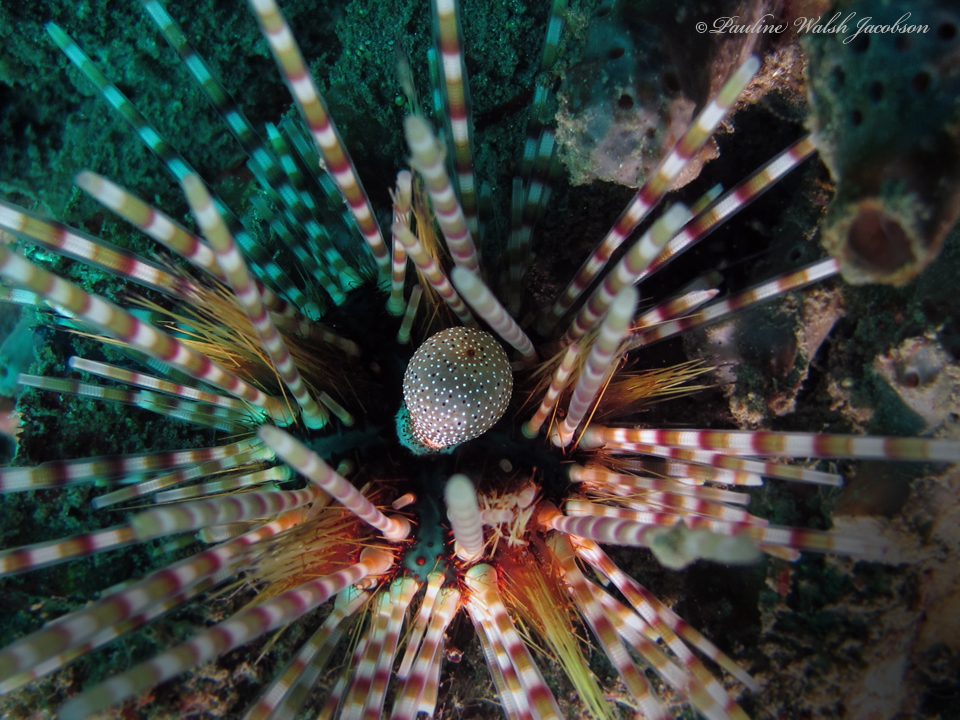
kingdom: Animalia
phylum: Echinodermata
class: Echinoidea
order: Diadematoida
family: Diadematidae
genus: Echinothrix
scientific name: Echinothrix calamaris
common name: Banded sea urchin
